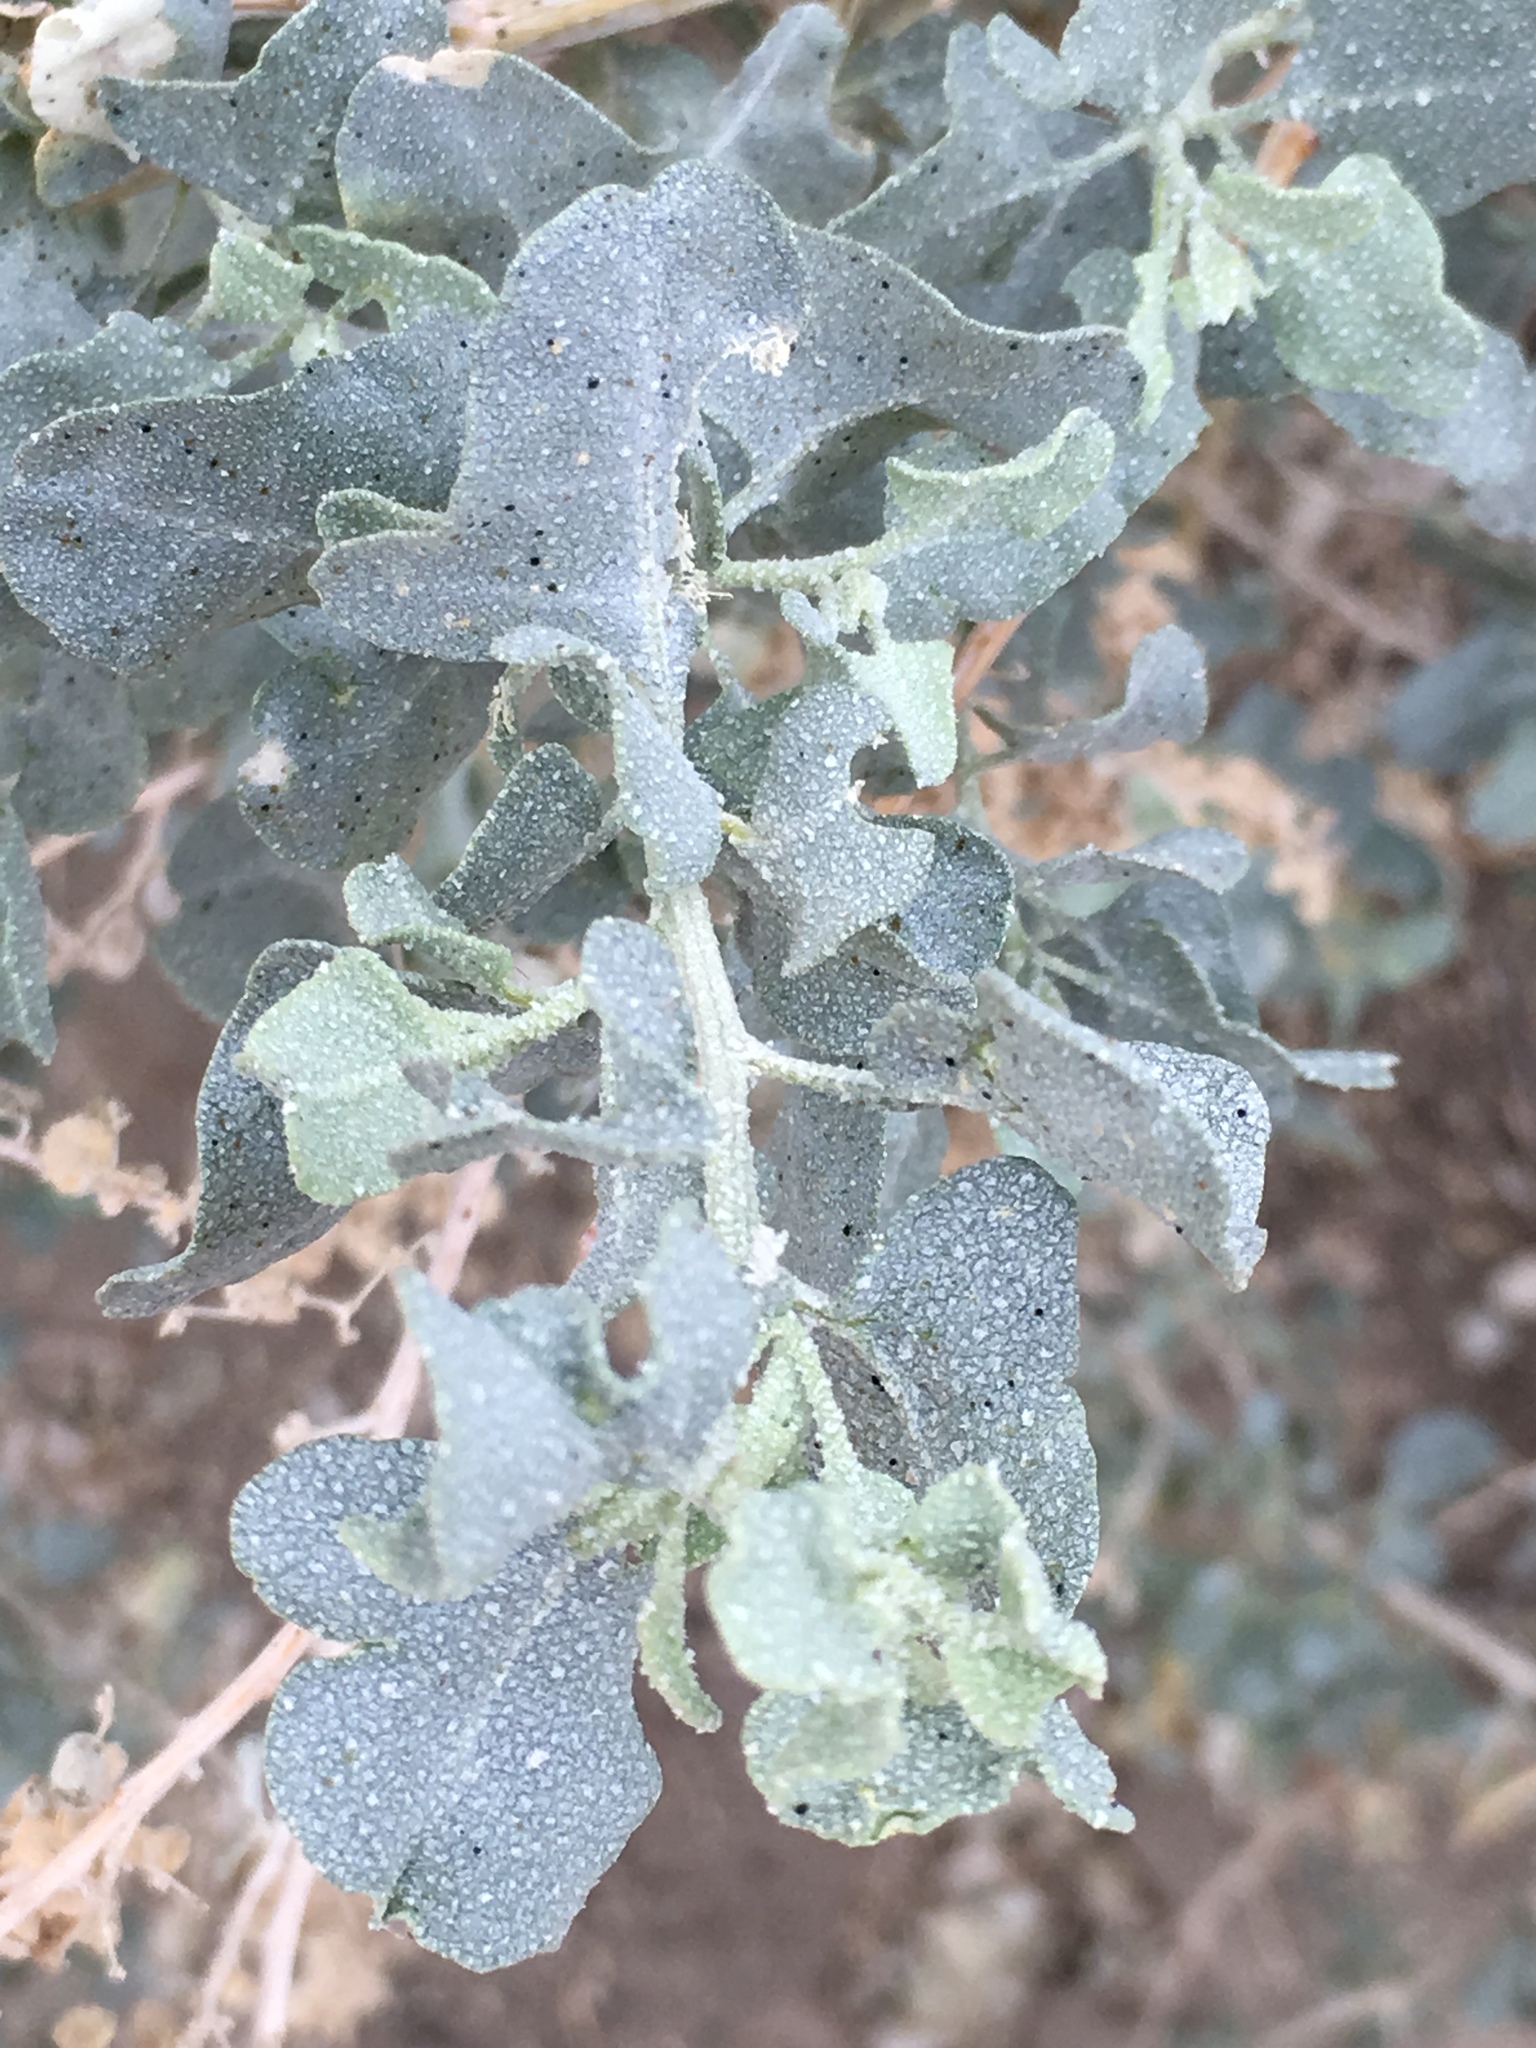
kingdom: Plantae
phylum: Tracheophyta
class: Magnoliopsida
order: Caryophyllales
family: Amaranthaceae
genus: Atriplex
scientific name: Atriplex lentiformis
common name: Big saltbush
